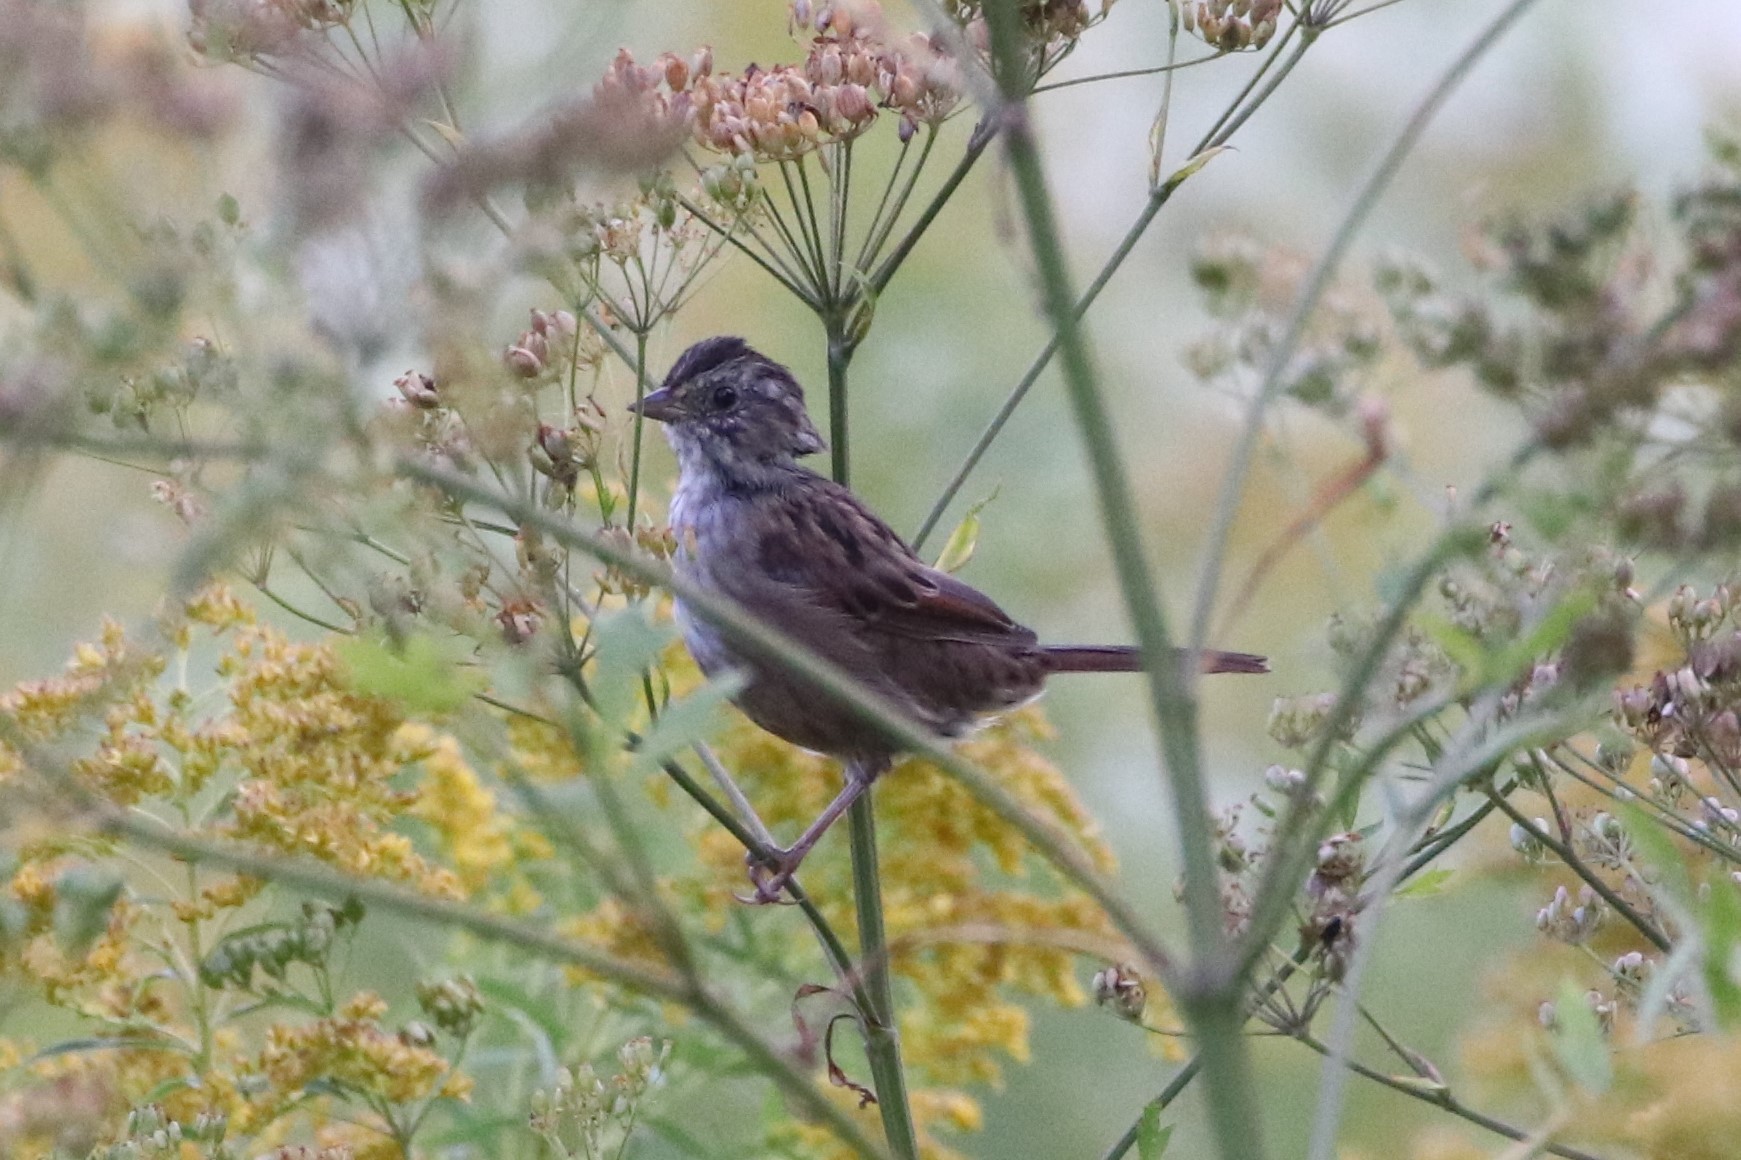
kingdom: Animalia
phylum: Chordata
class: Aves
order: Passeriformes
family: Passerellidae
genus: Melospiza
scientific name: Melospiza georgiana
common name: Swamp sparrow
